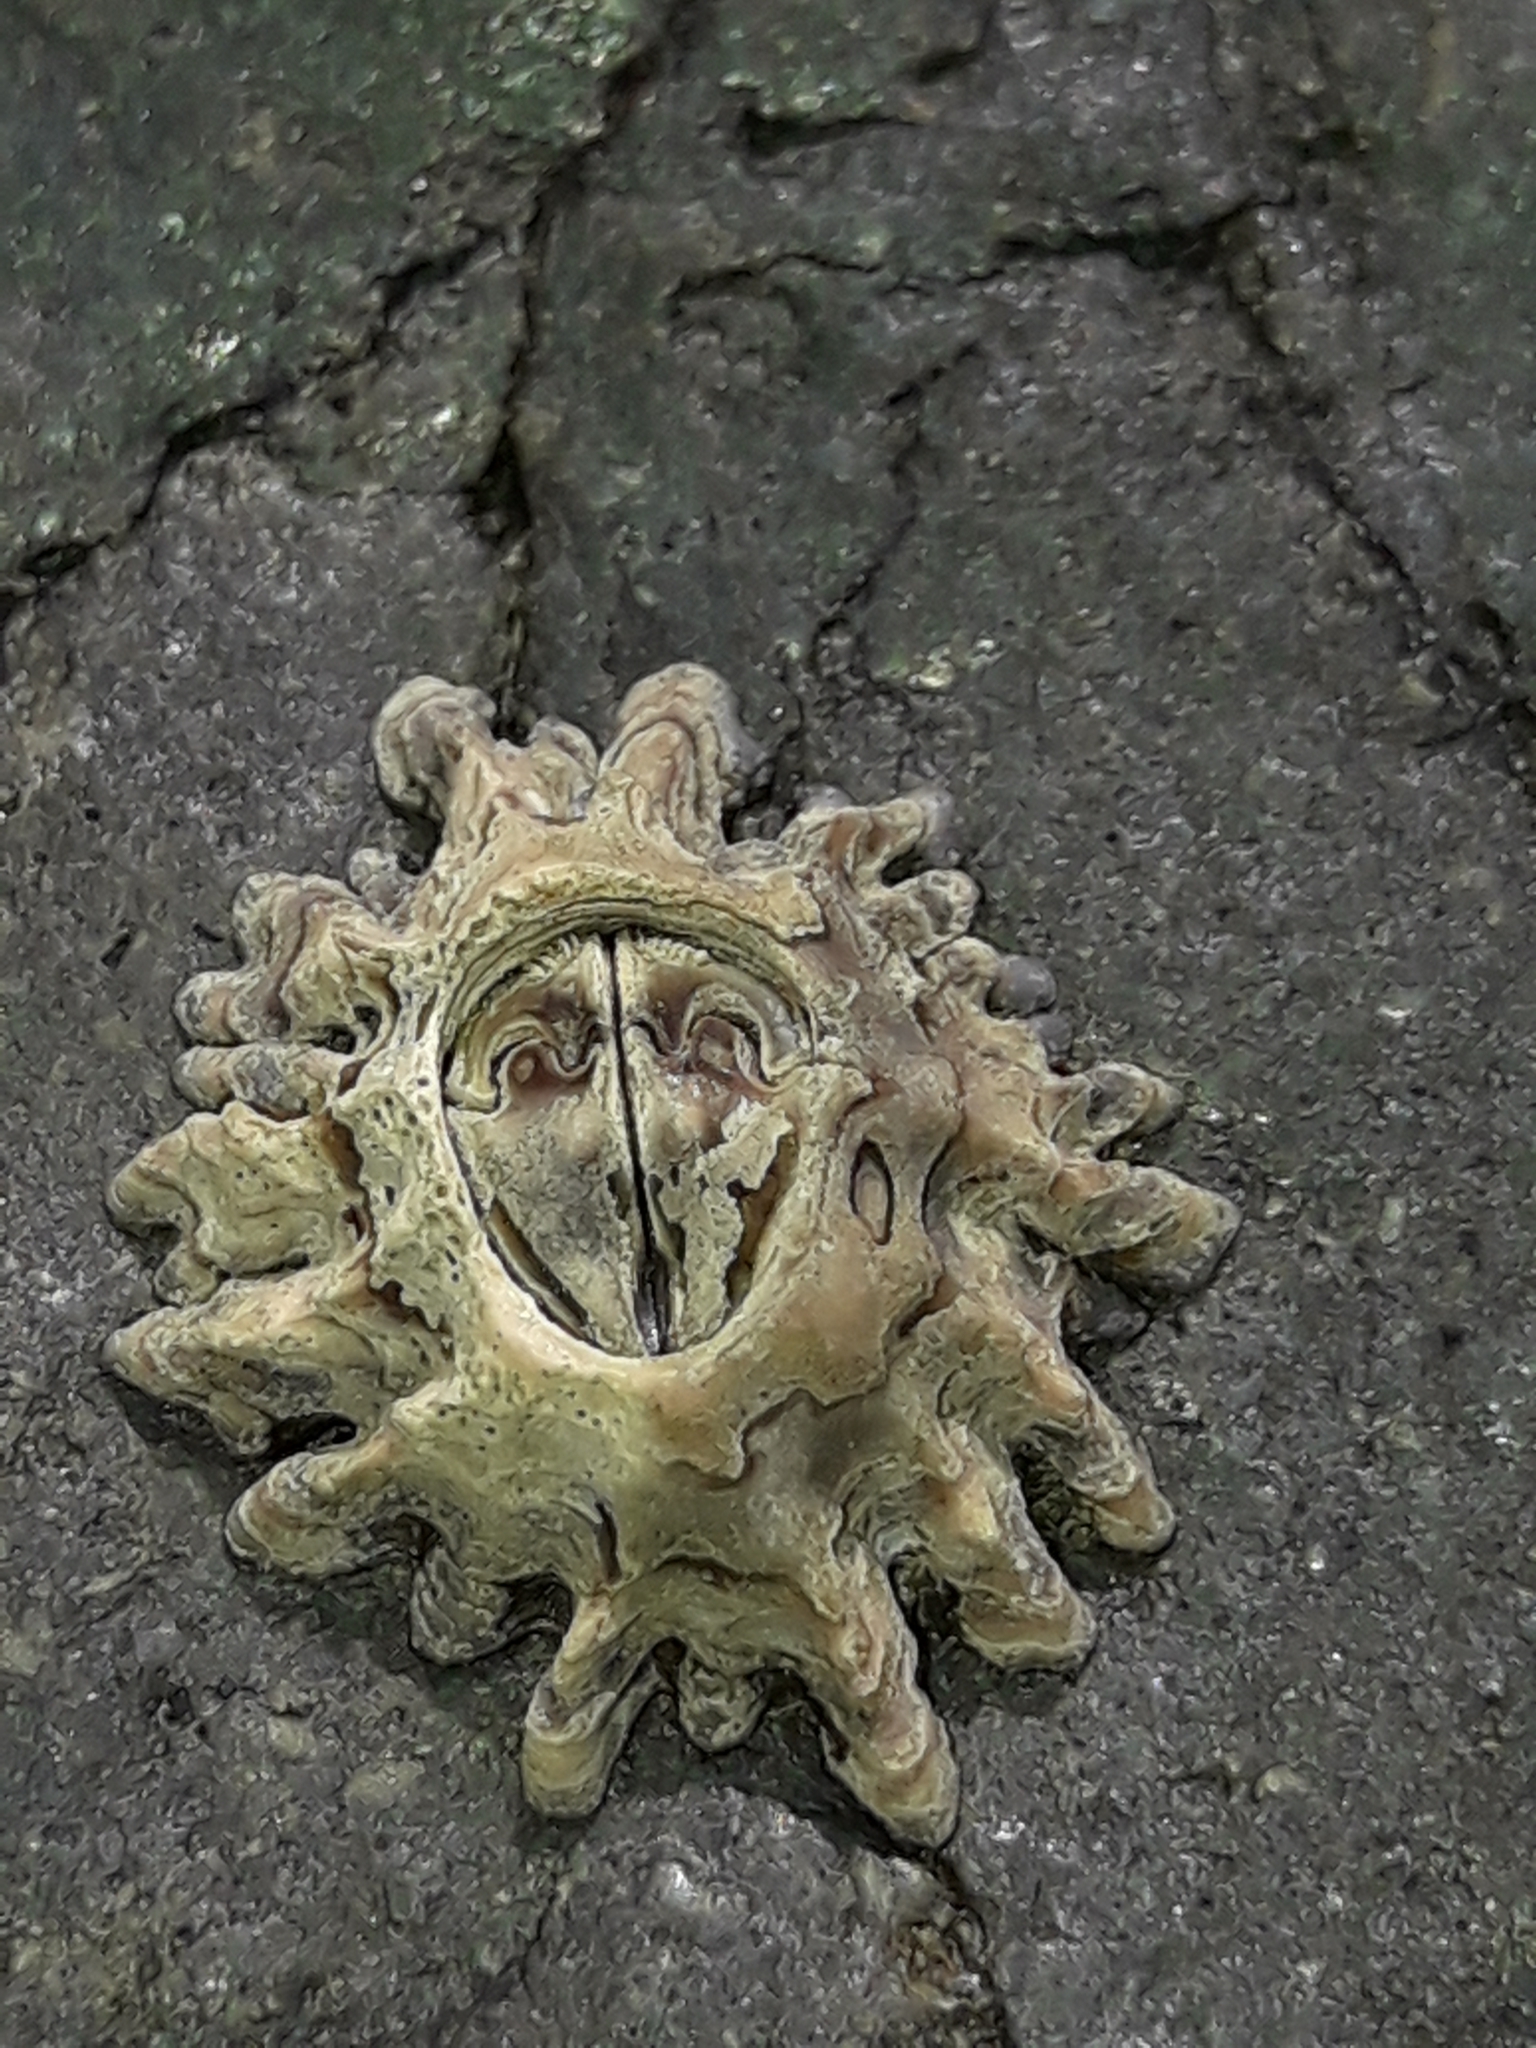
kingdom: Animalia
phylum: Arthropoda
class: Maxillopoda
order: Sessilia
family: Chthamalidae
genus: Chamaesipho
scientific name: Chamaesipho brunnea
